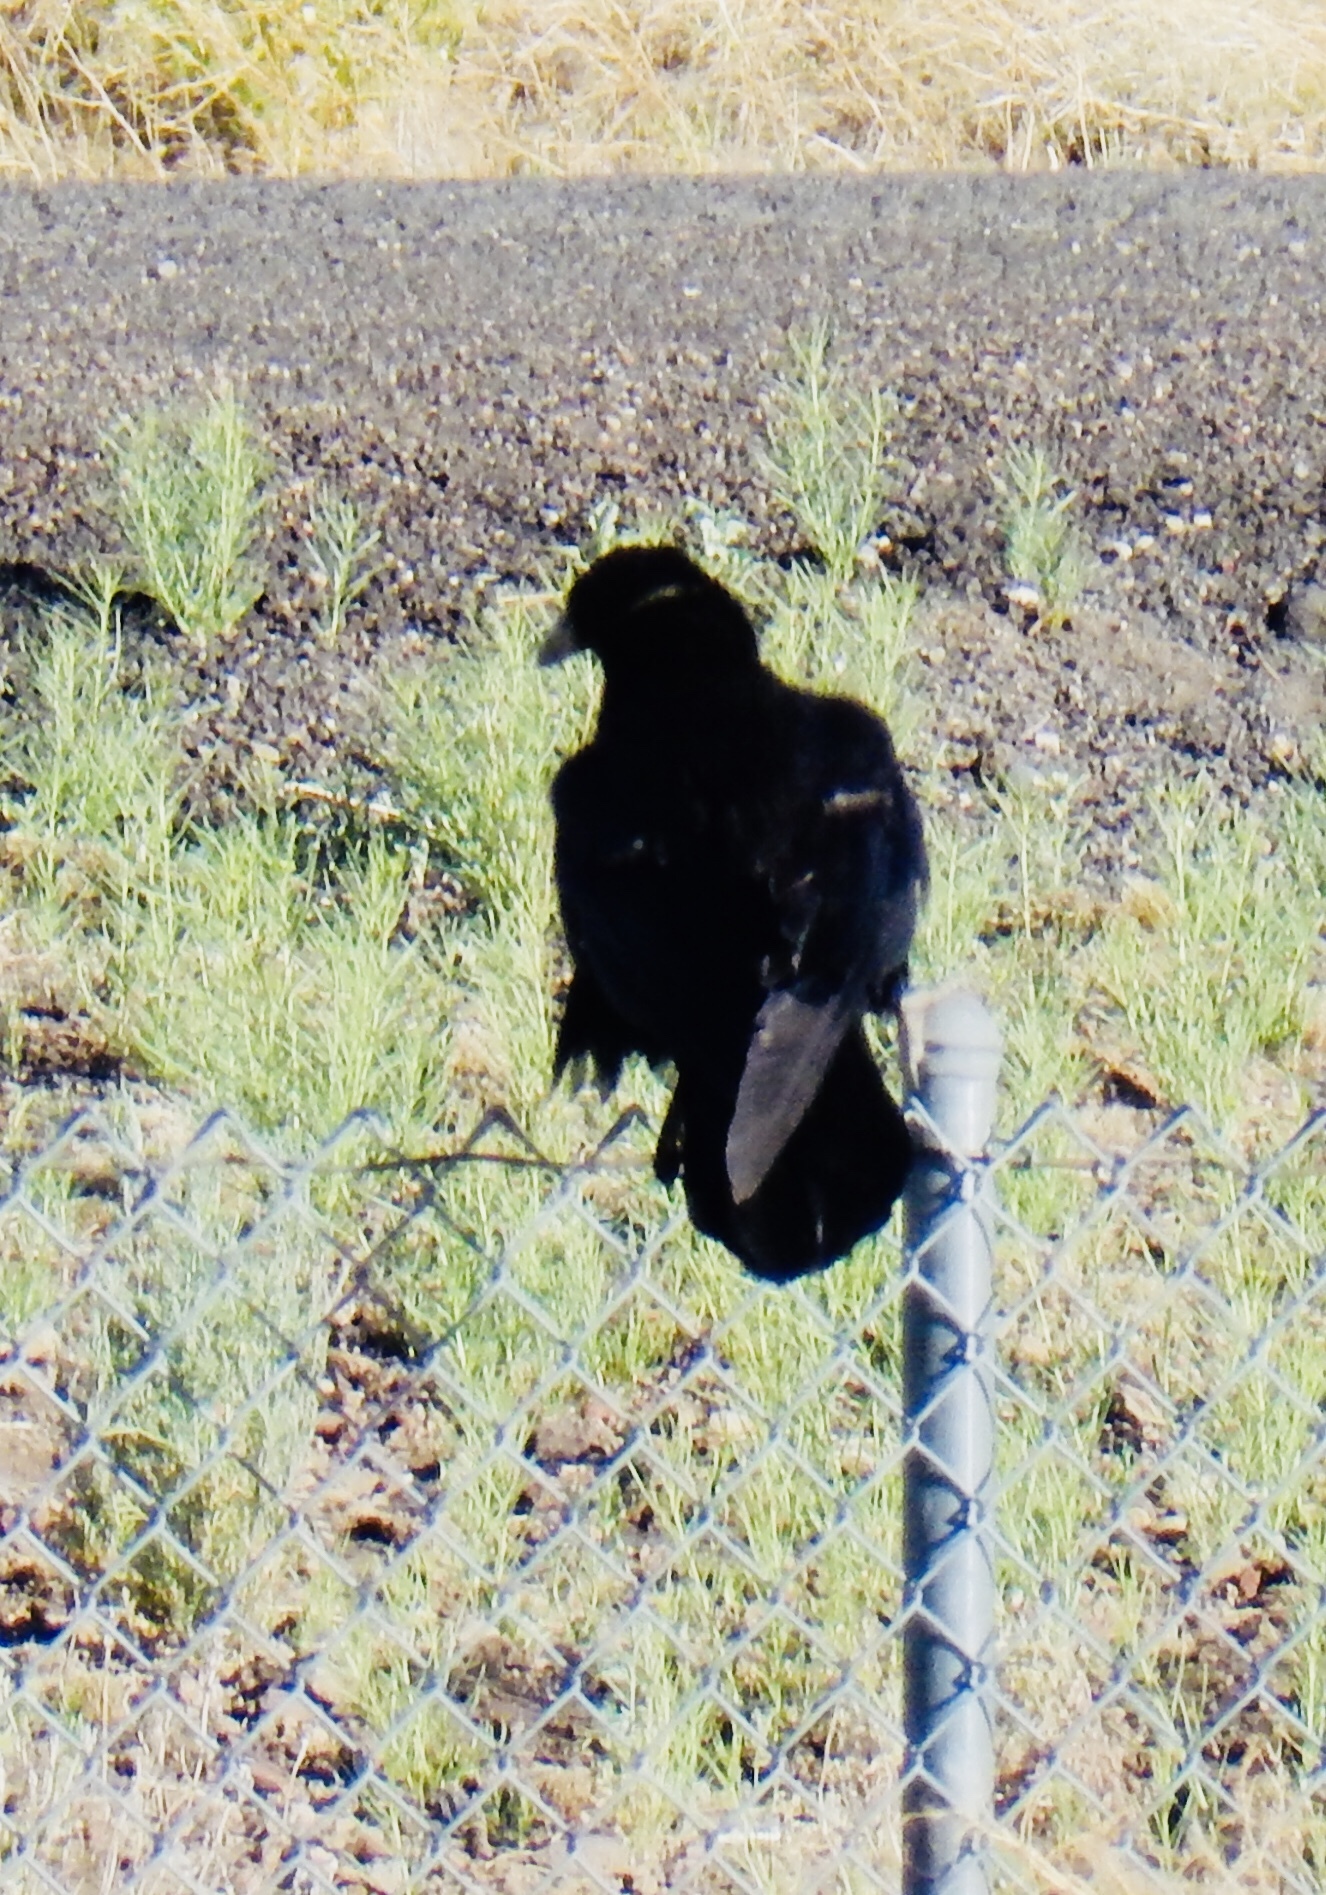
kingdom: Animalia
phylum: Chordata
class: Aves
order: Passeriformes
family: Corvidae
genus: Corvus
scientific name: Corvus corax
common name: Common raven
